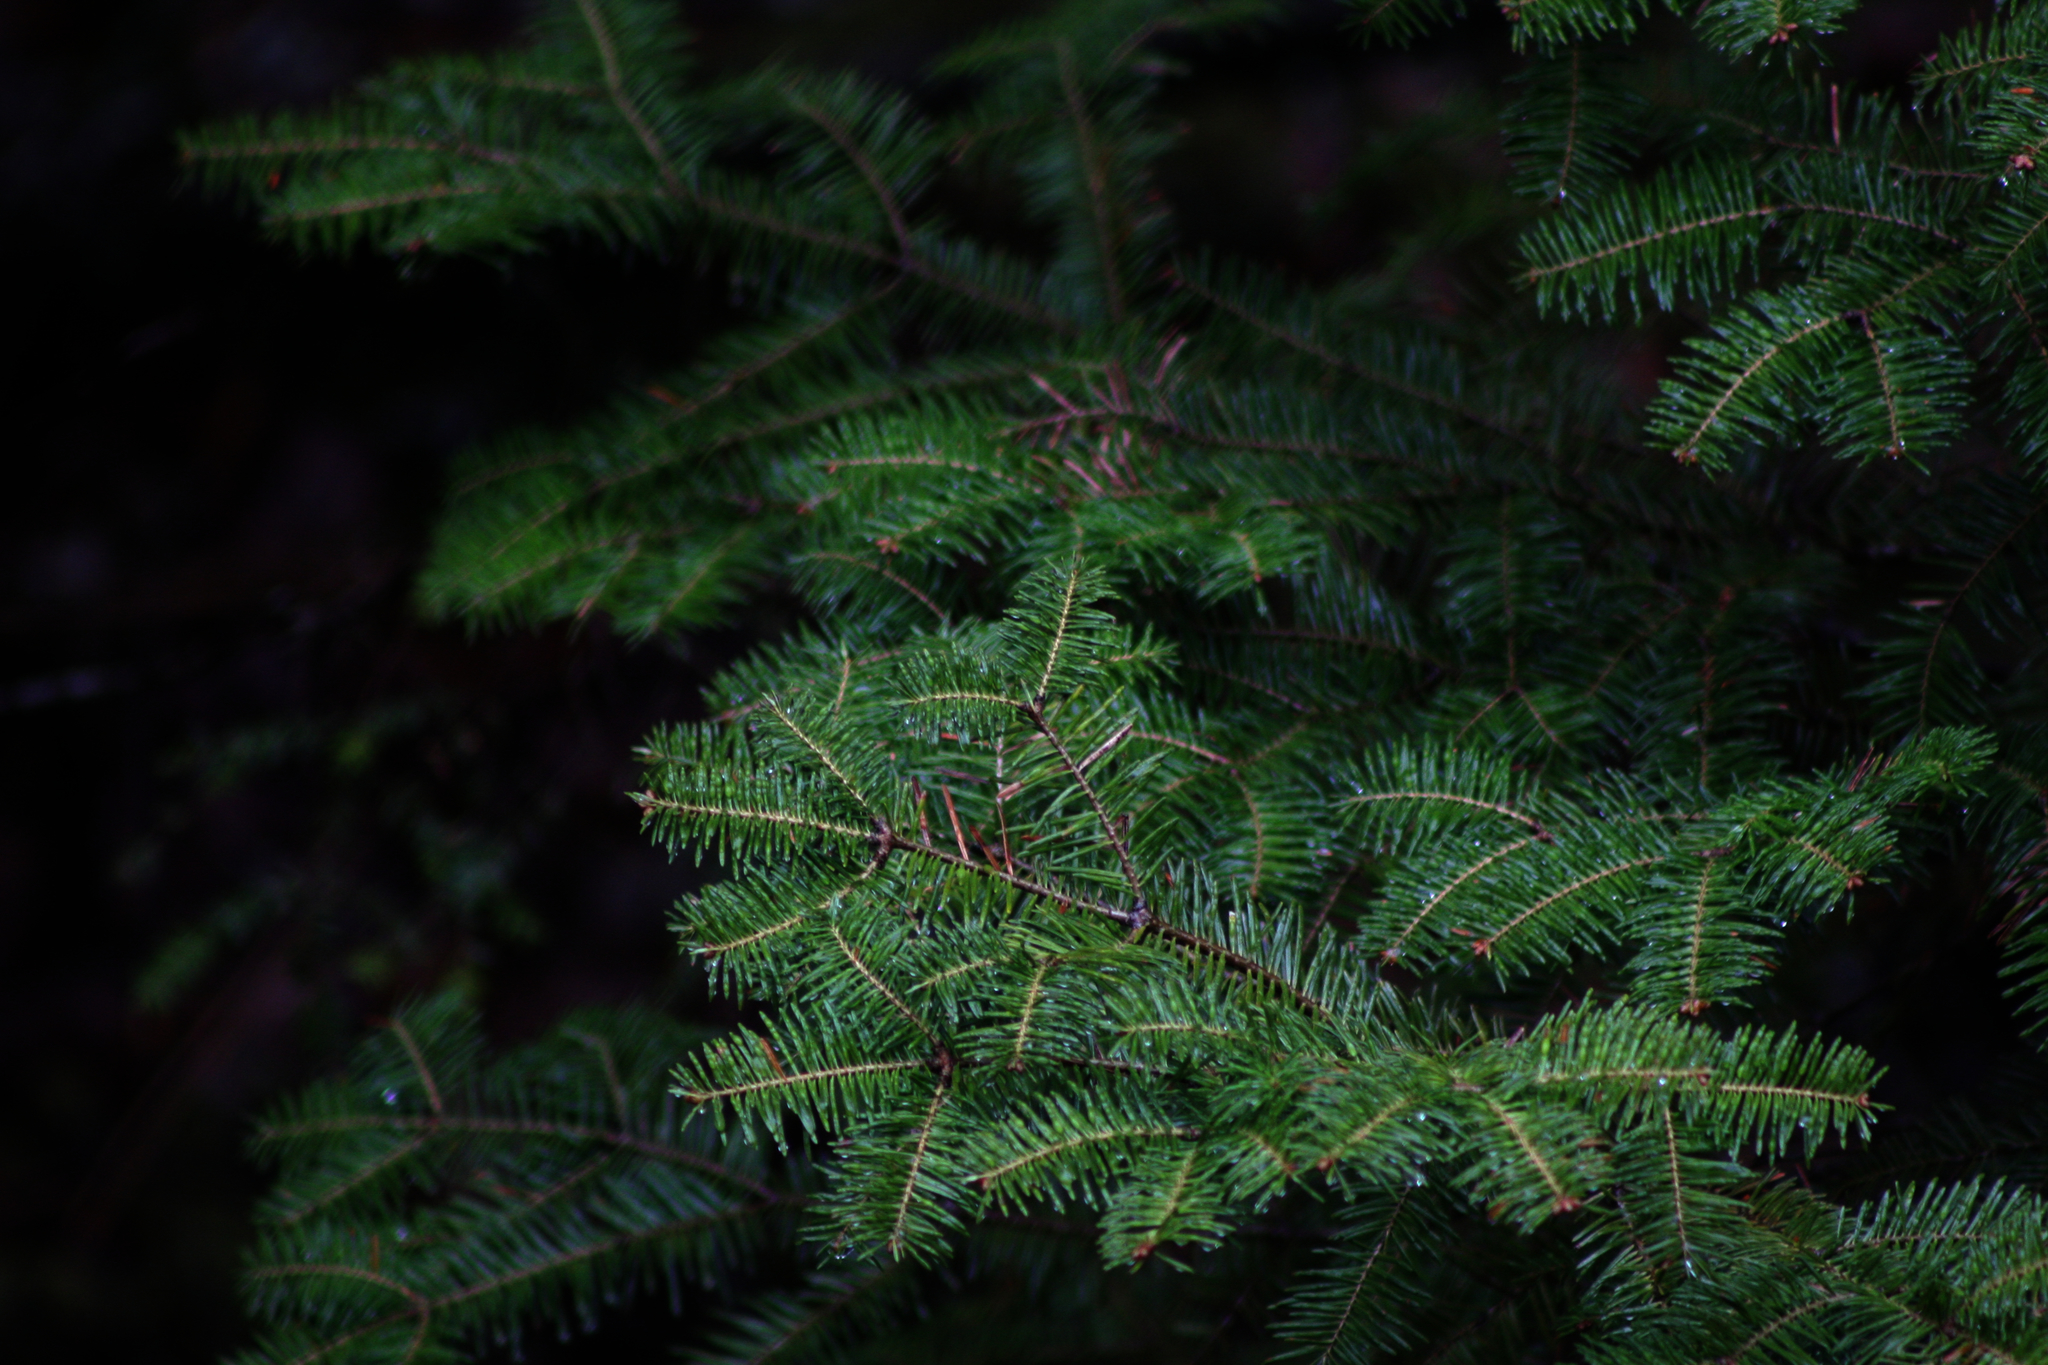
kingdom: Plantae
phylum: Tracheophyta
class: Pinopsida
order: Pinales
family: Pinaceae
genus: Abies
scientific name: Abies balsamea
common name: Balsam fir
